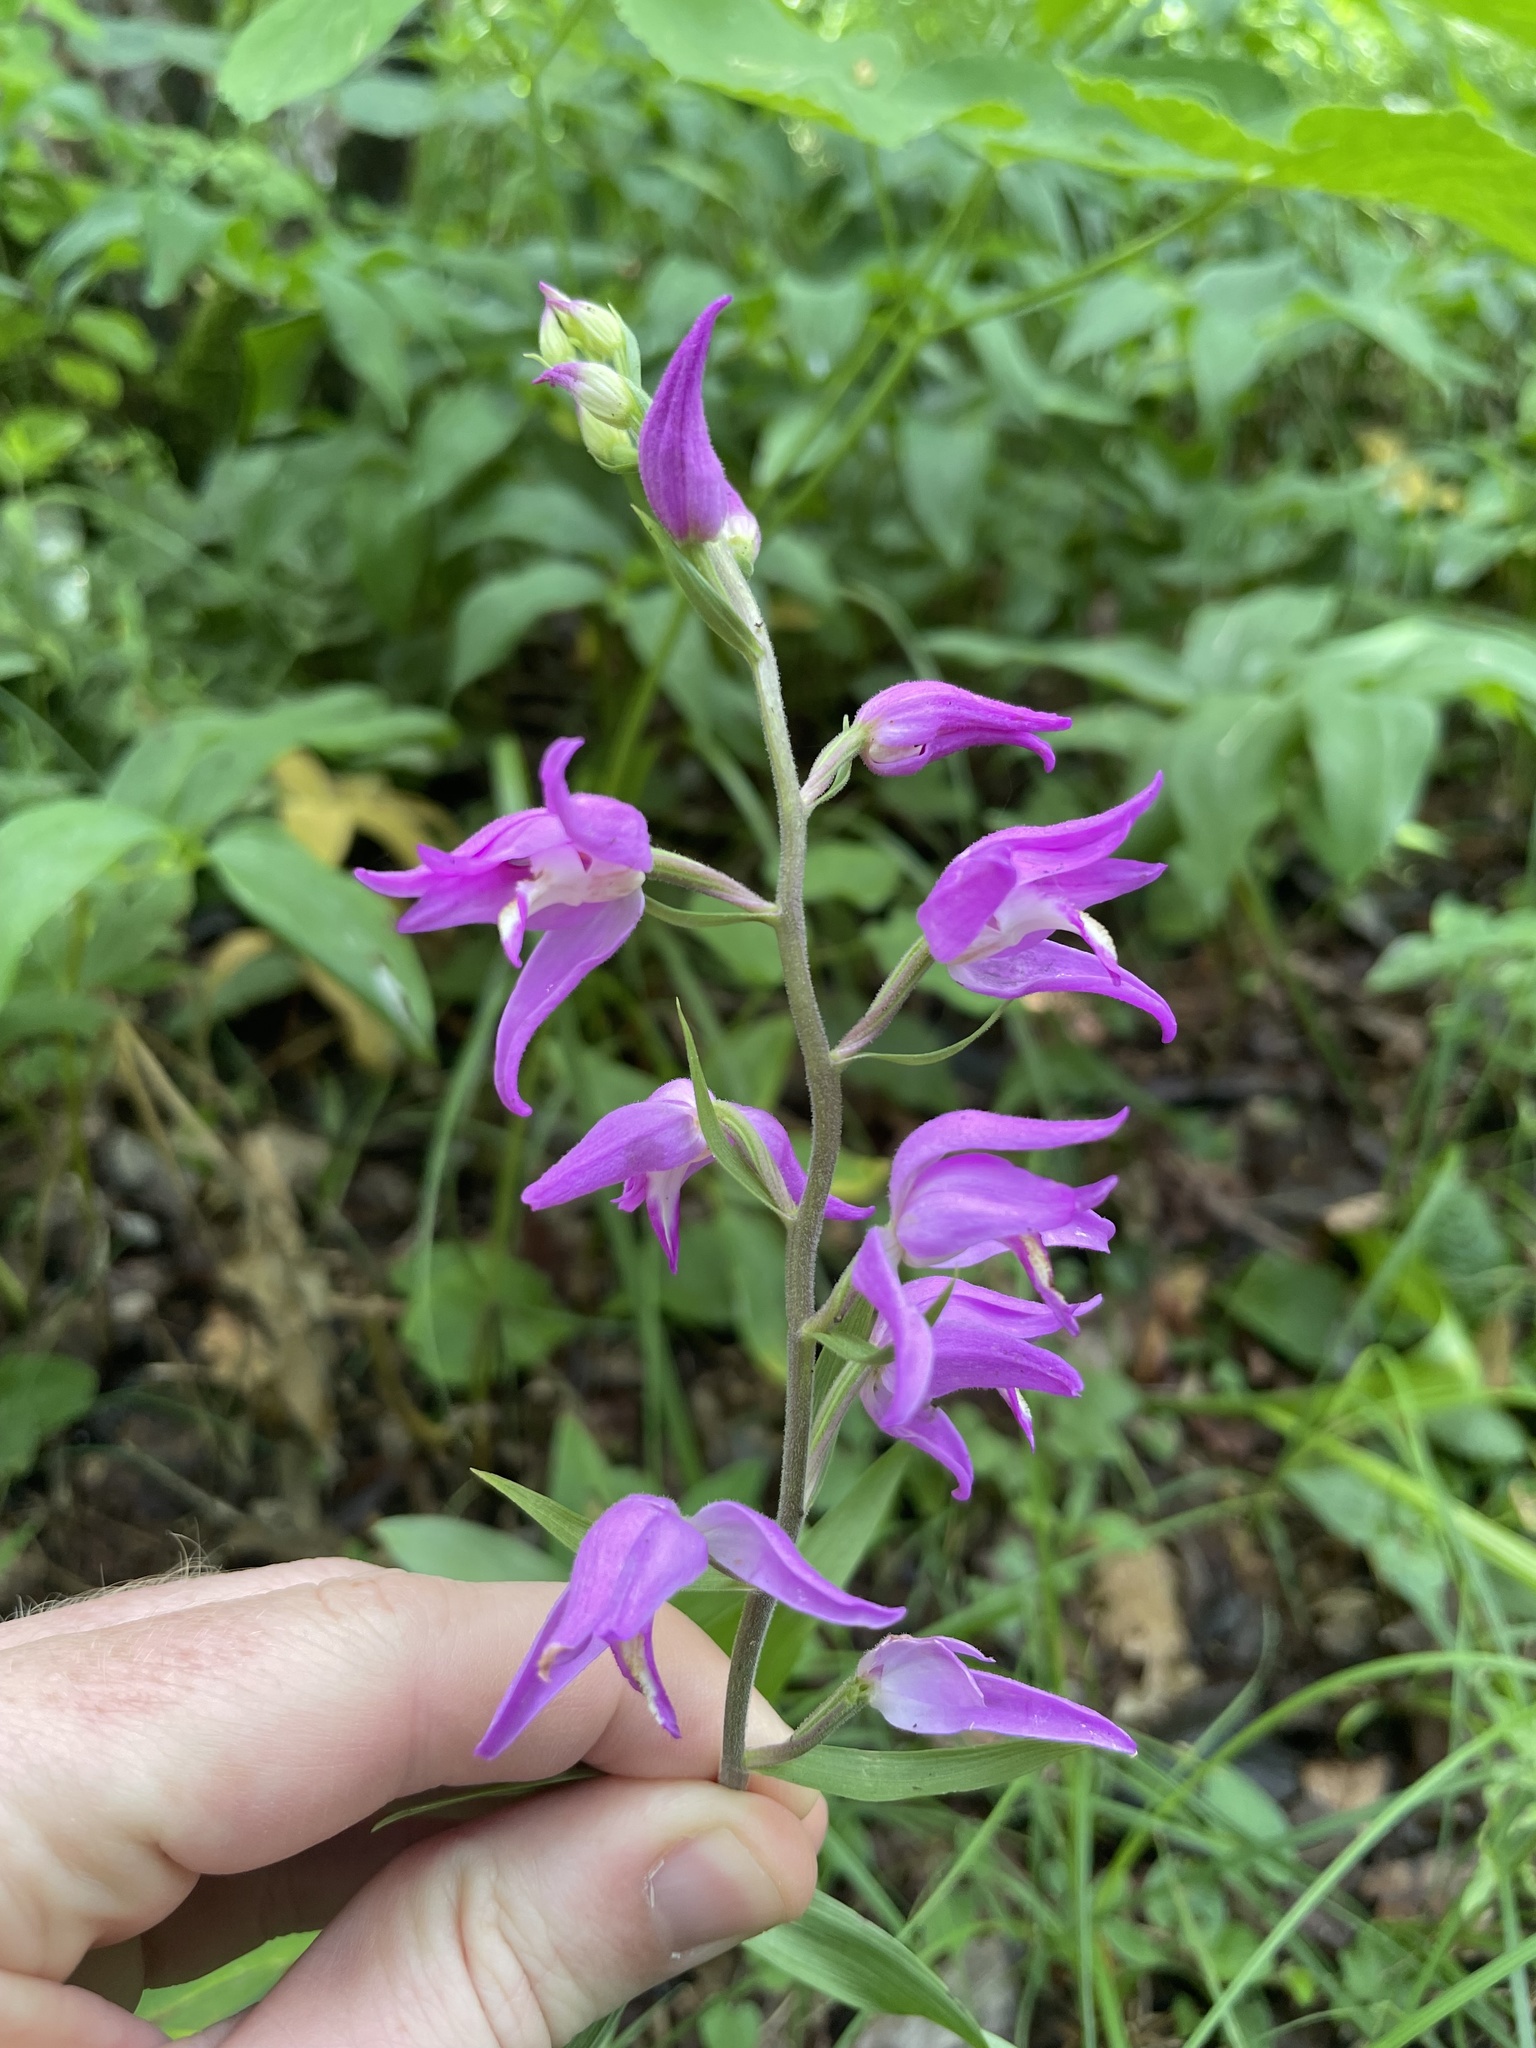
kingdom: Plantae
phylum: Tracheophyta
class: Liliopsida
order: Asparagales
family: Orchidaceae
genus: Cephalanthera
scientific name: Cephalanthera rubra
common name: Red helleborine
